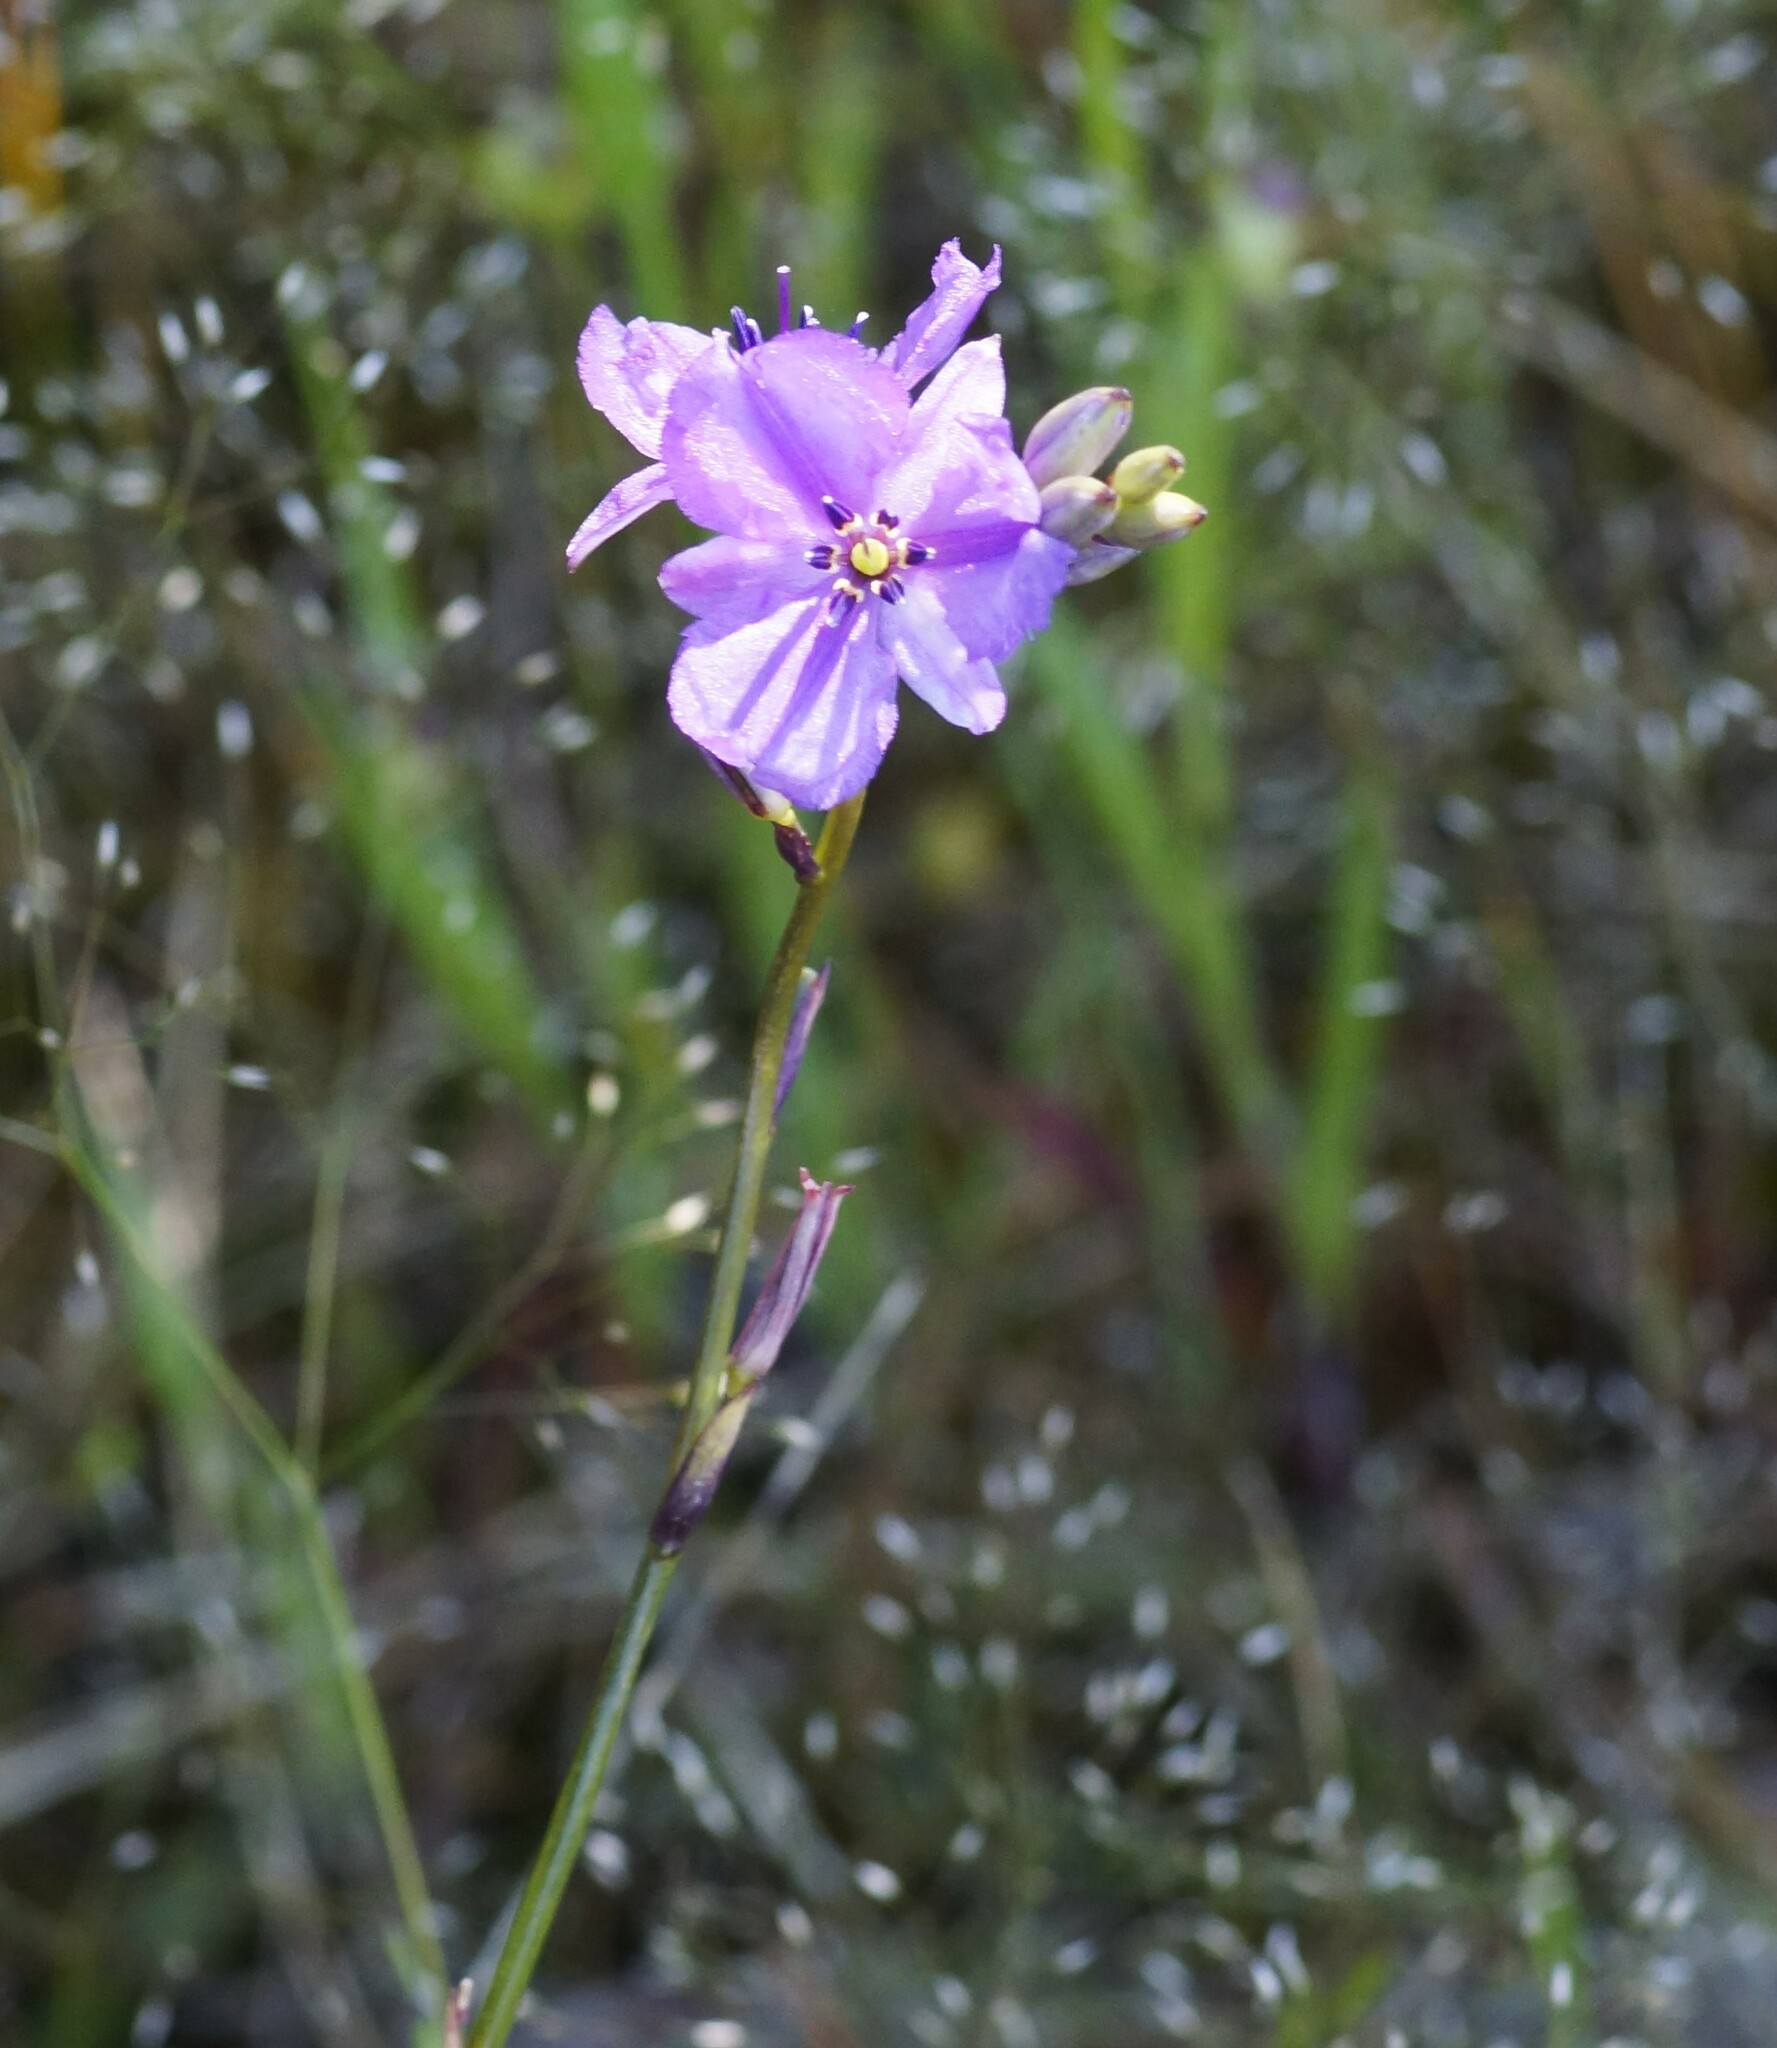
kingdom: Plantae
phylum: Tracheophyta
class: Liliopsida
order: Asparagales
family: Asparagaceae
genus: Arthropodium
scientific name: Arthropodium strictum
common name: Chocolate-lily
